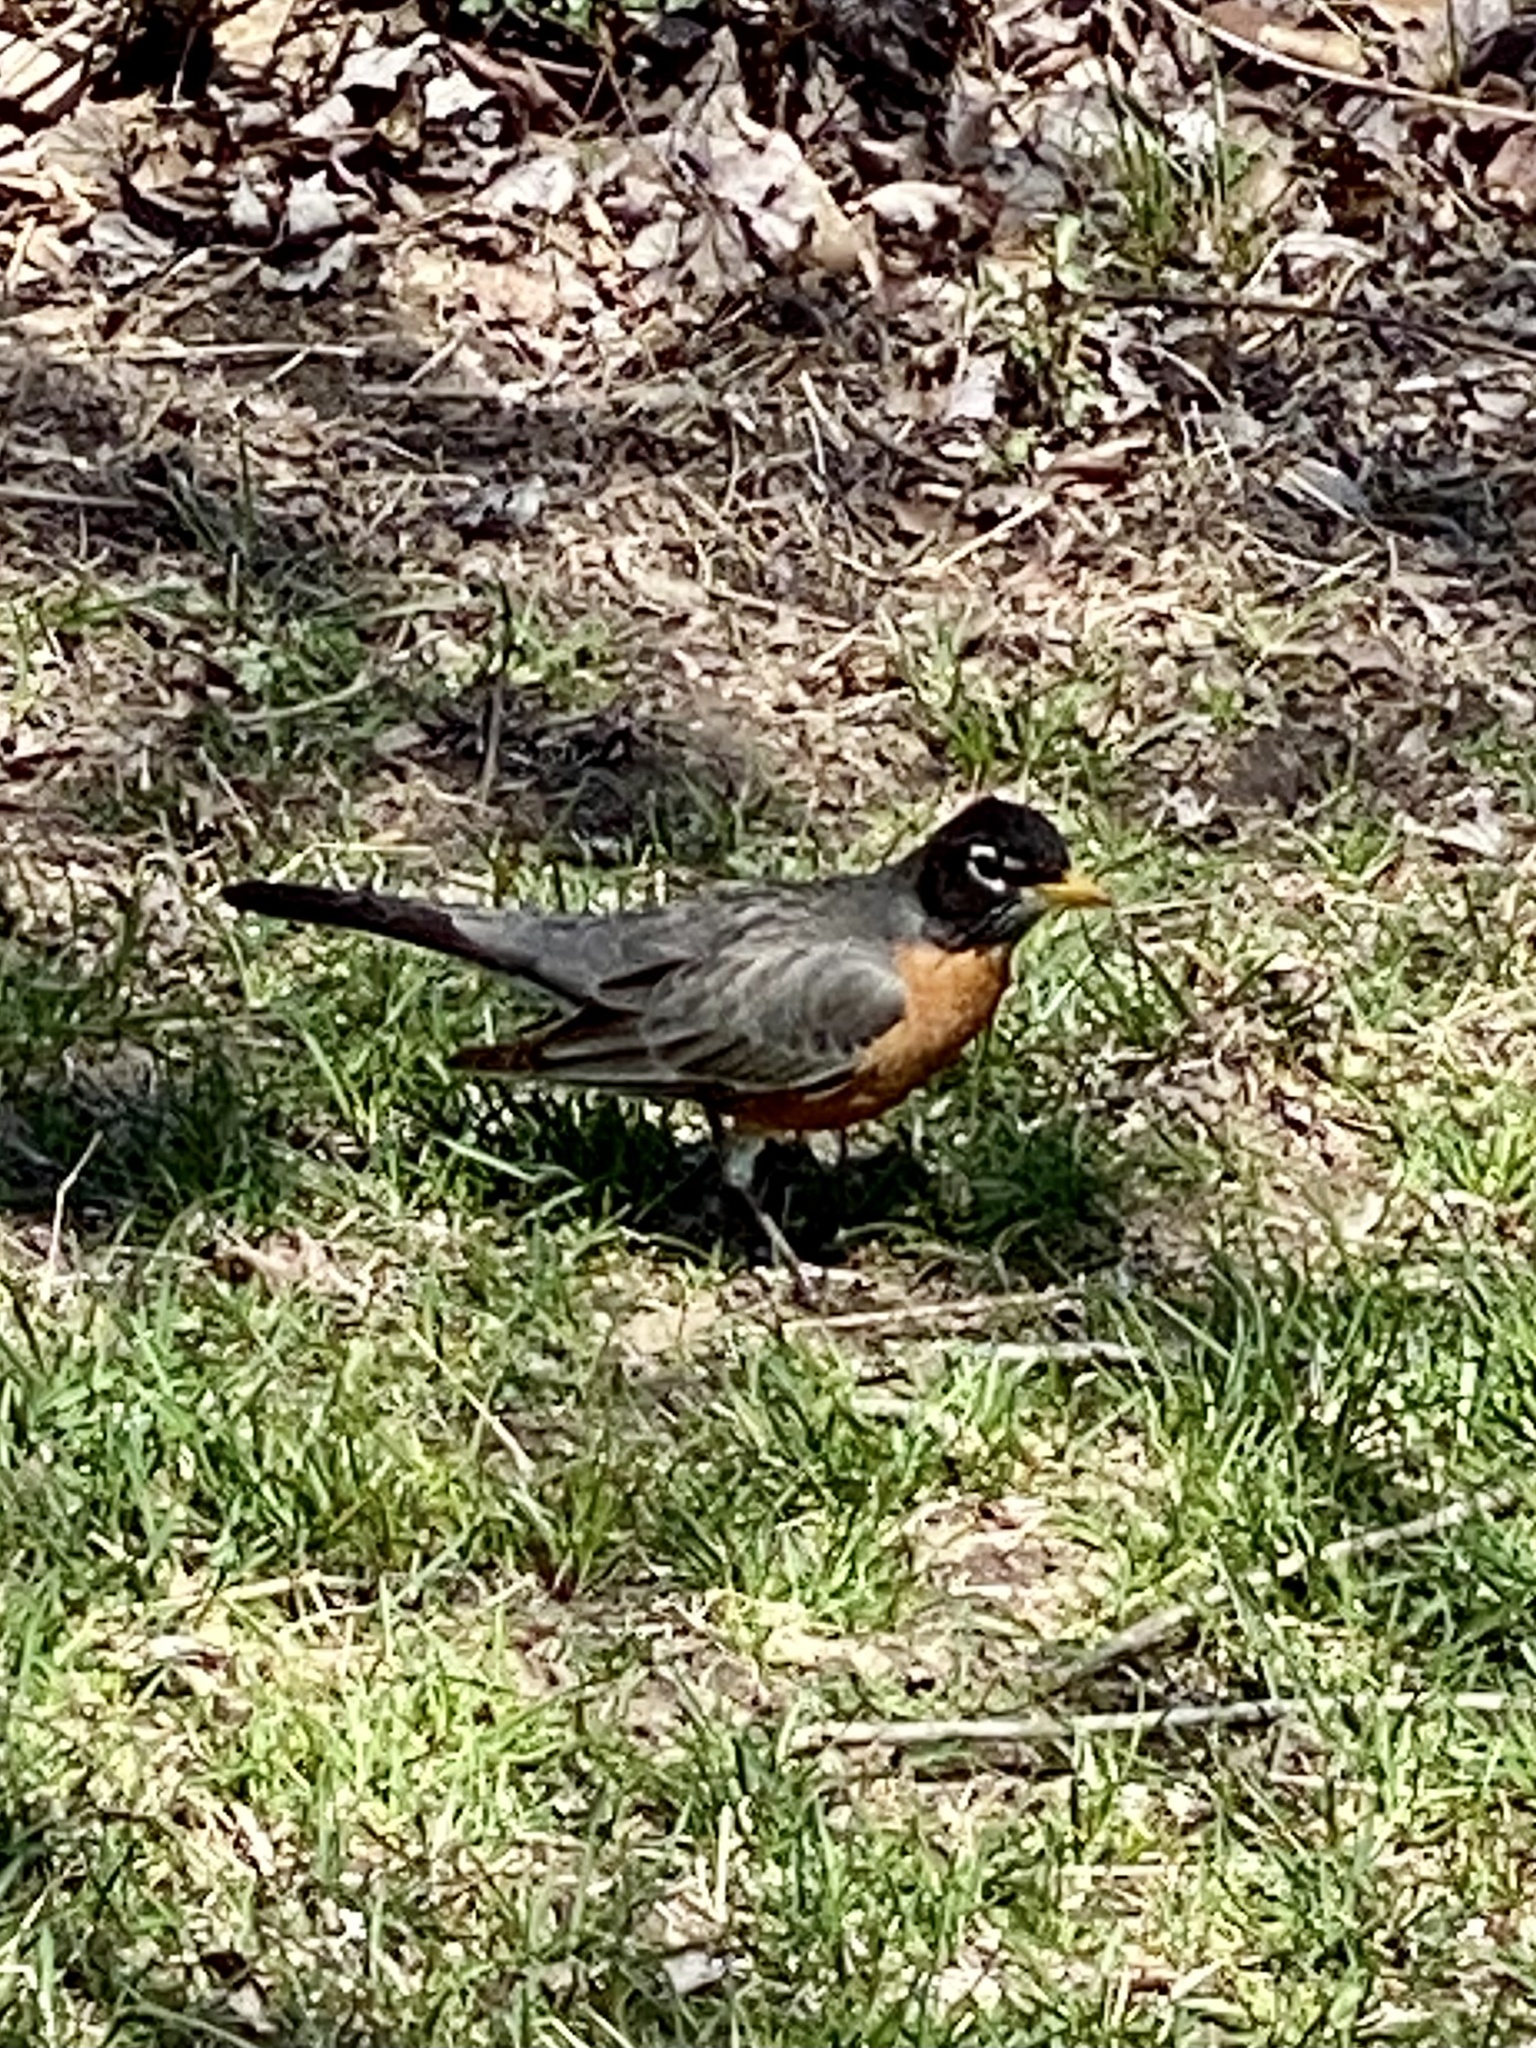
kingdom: Animalia
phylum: Chordata
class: Aves
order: Passeriformes
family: Turdidae
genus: Turdus
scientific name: Turdus migratorius
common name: American robin
